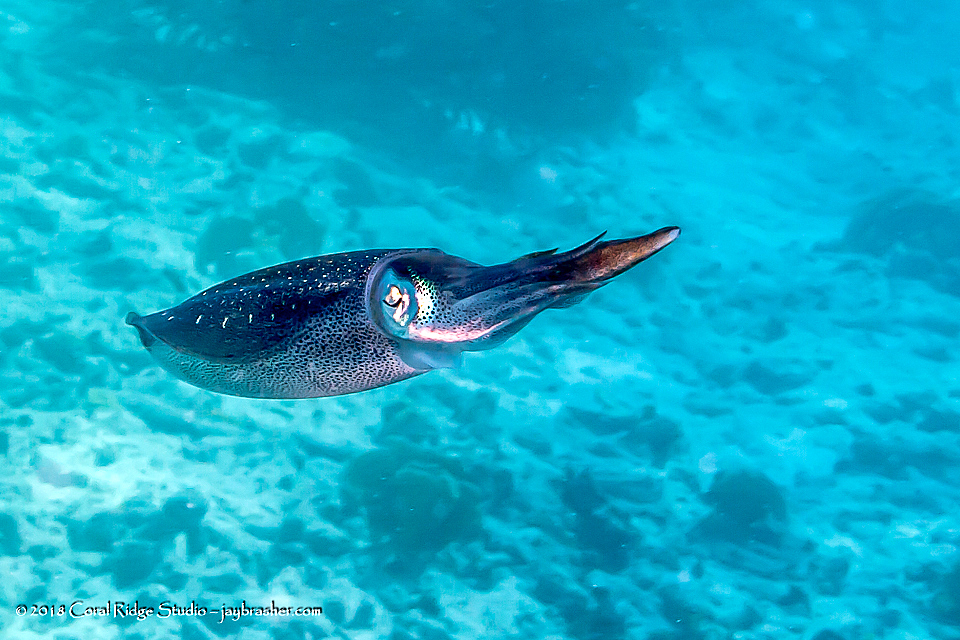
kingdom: Animalia
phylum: Mollusca
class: Cephalopoda
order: Myopsida
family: Loliginidae
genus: Sepioteuthis
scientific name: Sepioteuthis sepioidea
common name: Caribbean reef squid
